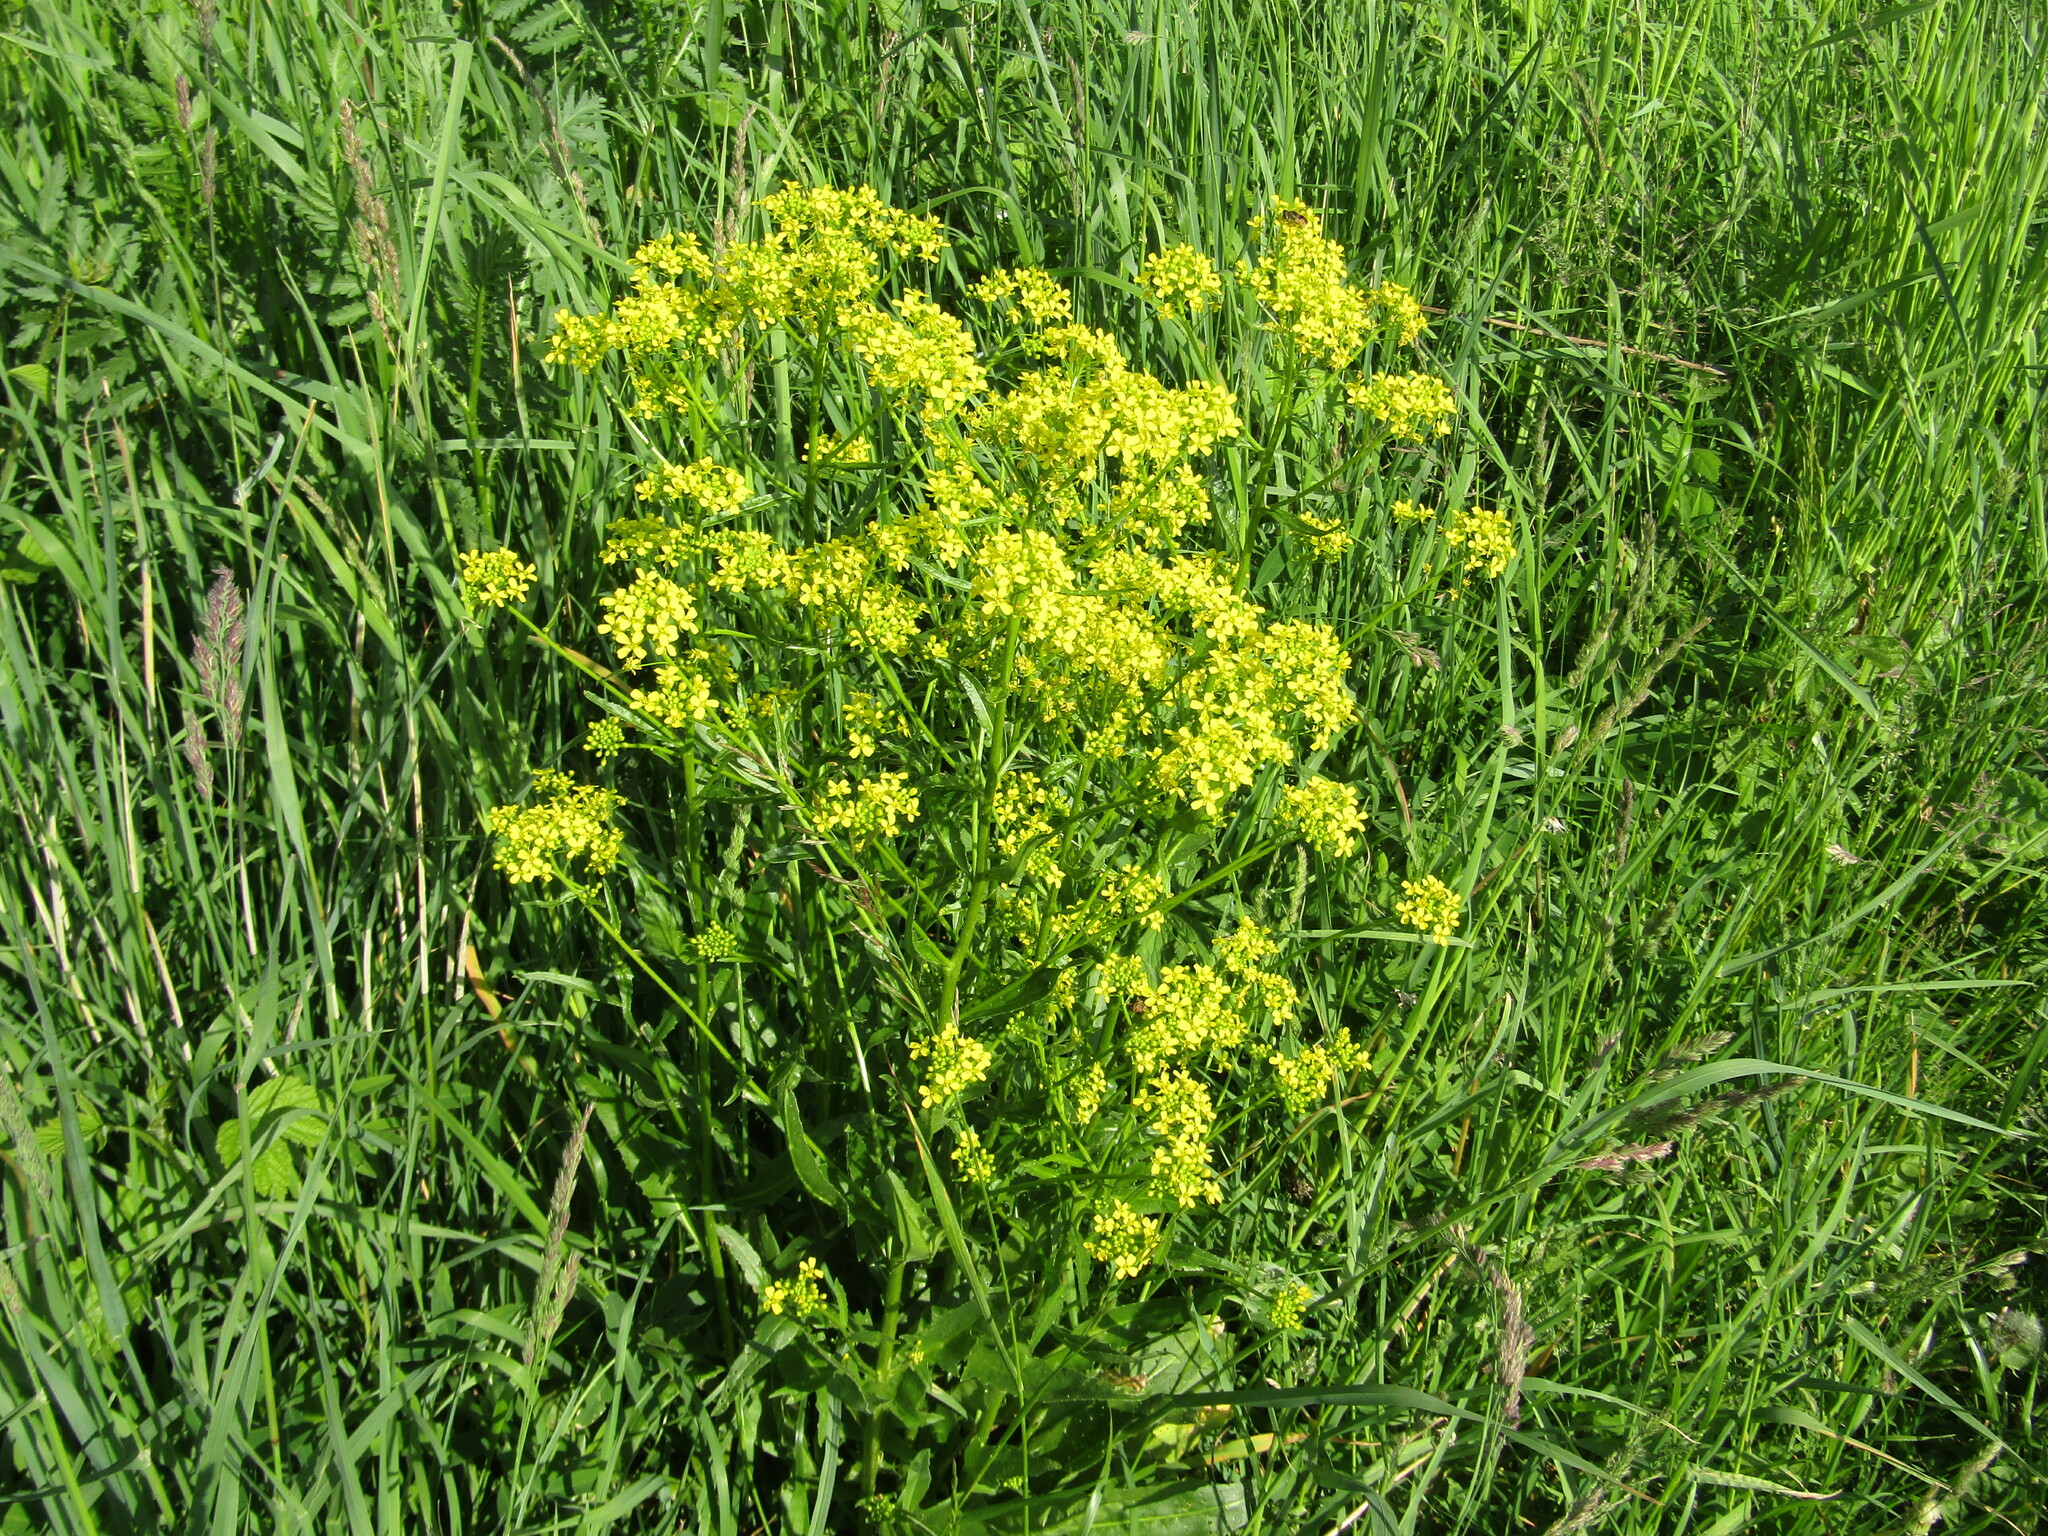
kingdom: Plantae
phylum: Tracheophyta
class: Magnoliopsida
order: Brassicales
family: Brassicaceae
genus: Bunias
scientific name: Bunias orientalis
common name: Warty-cabbage
